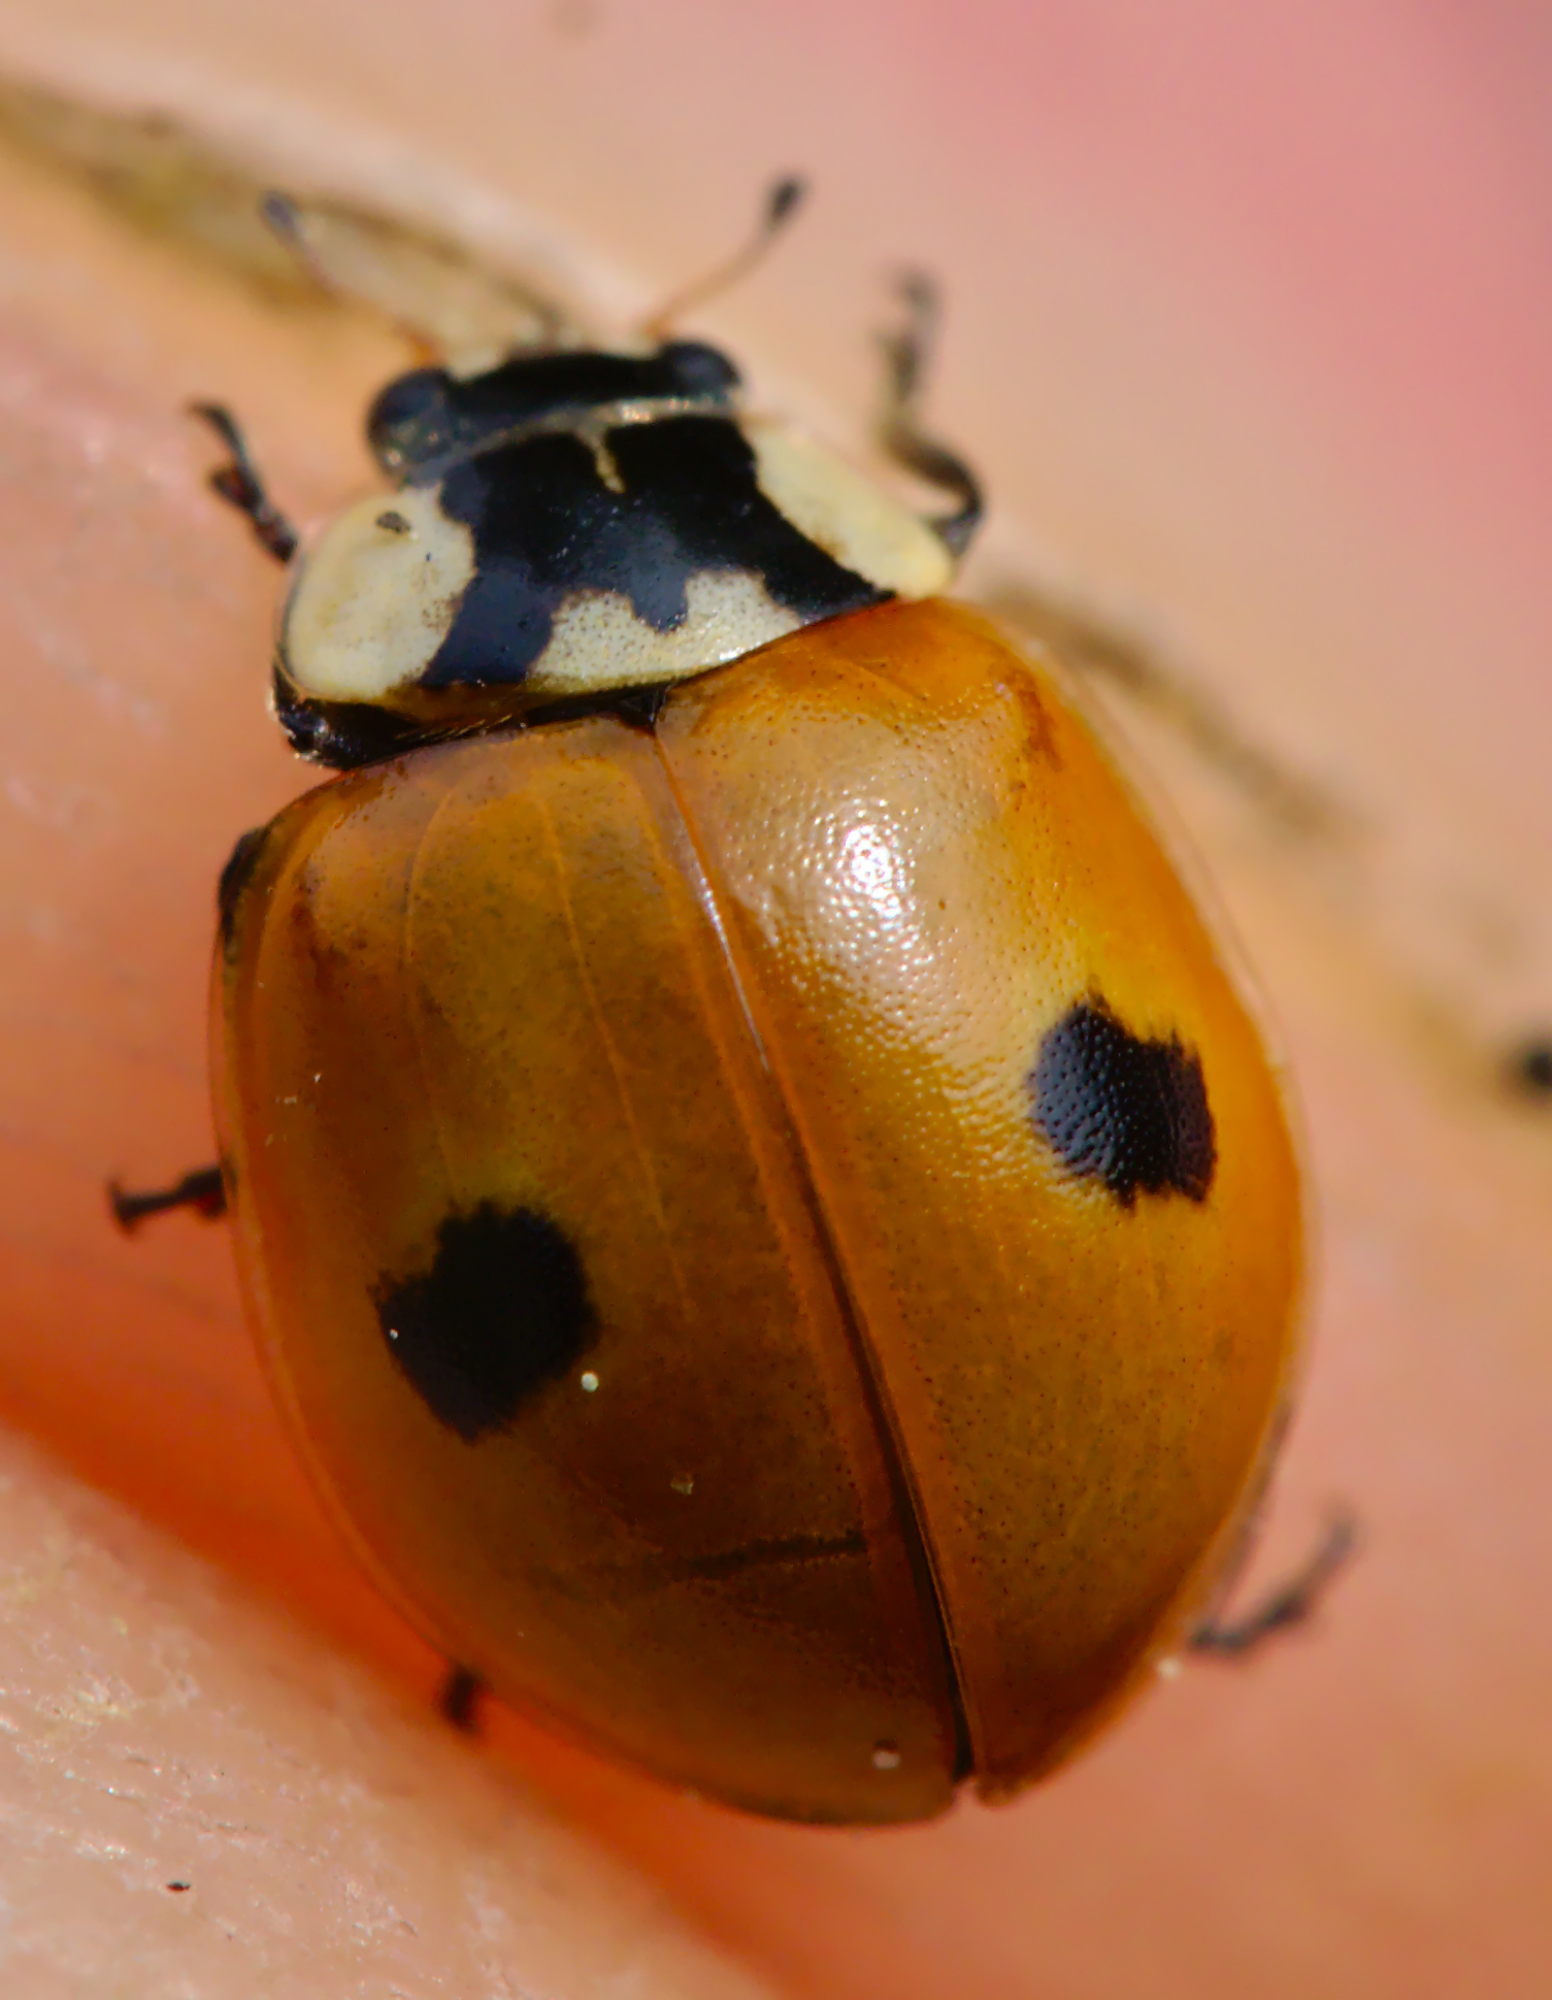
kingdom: Animalia
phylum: Arthropoda
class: Insecta
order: Coleoptera
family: Coccinellidae
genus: Adalia
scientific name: Adalia bipunctata
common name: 2-spot ladybird
